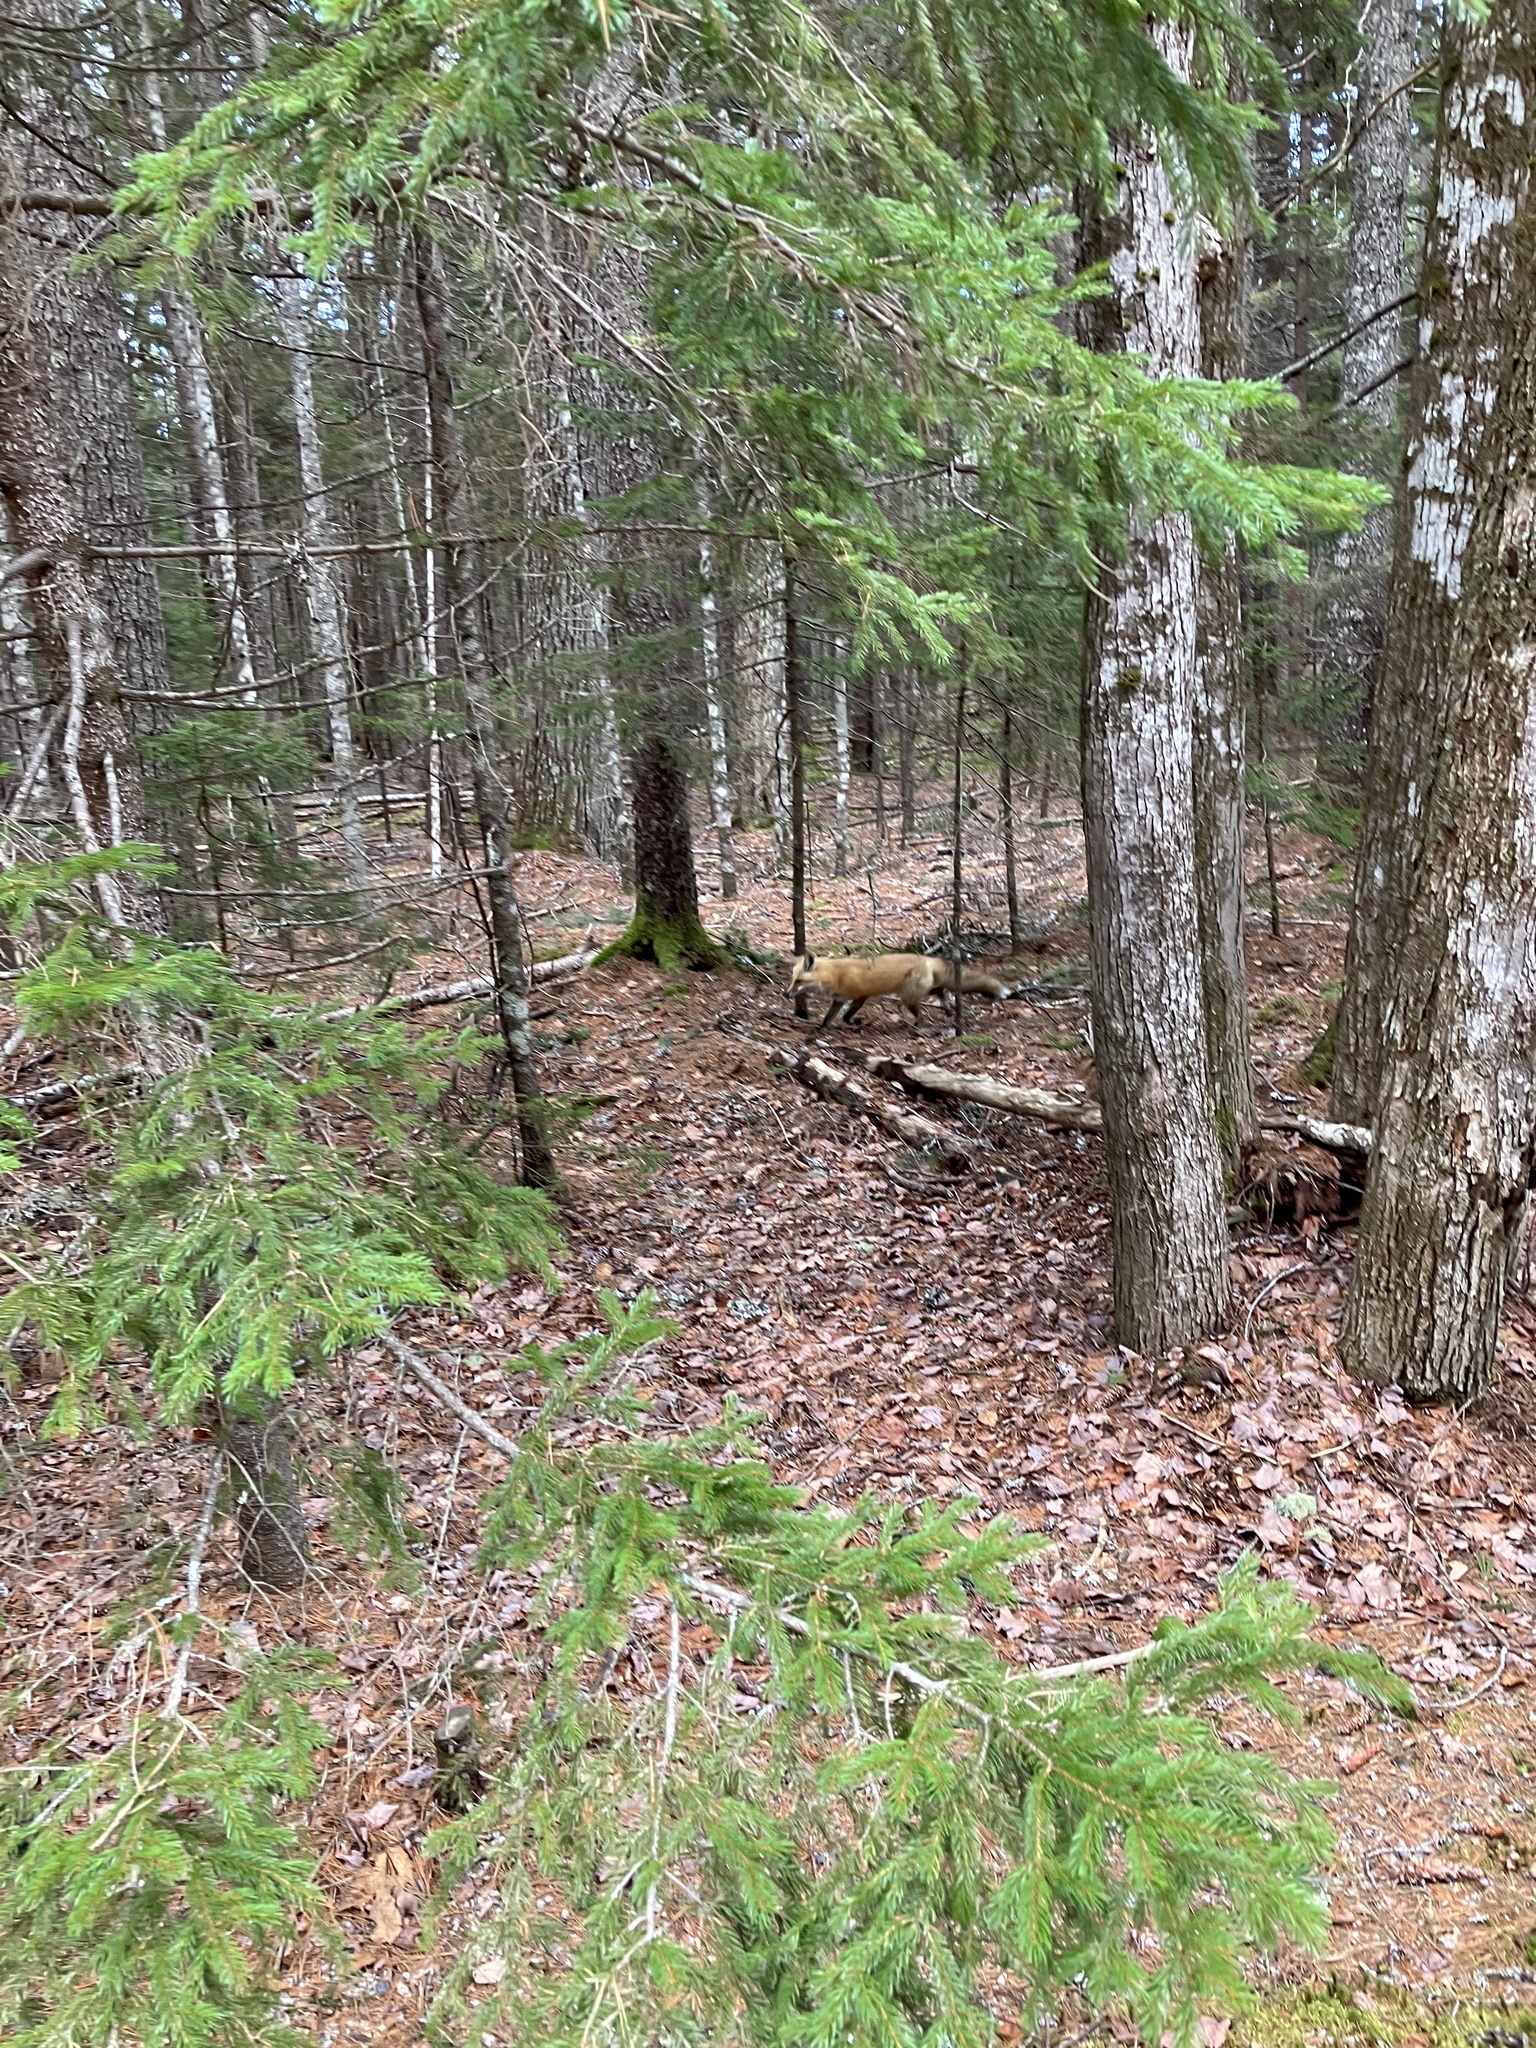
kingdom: Animalia
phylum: Chordata
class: Mammalia
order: Carnivora
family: Canidae
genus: Vulpes
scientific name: Vulpes vulpes
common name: Red fox
